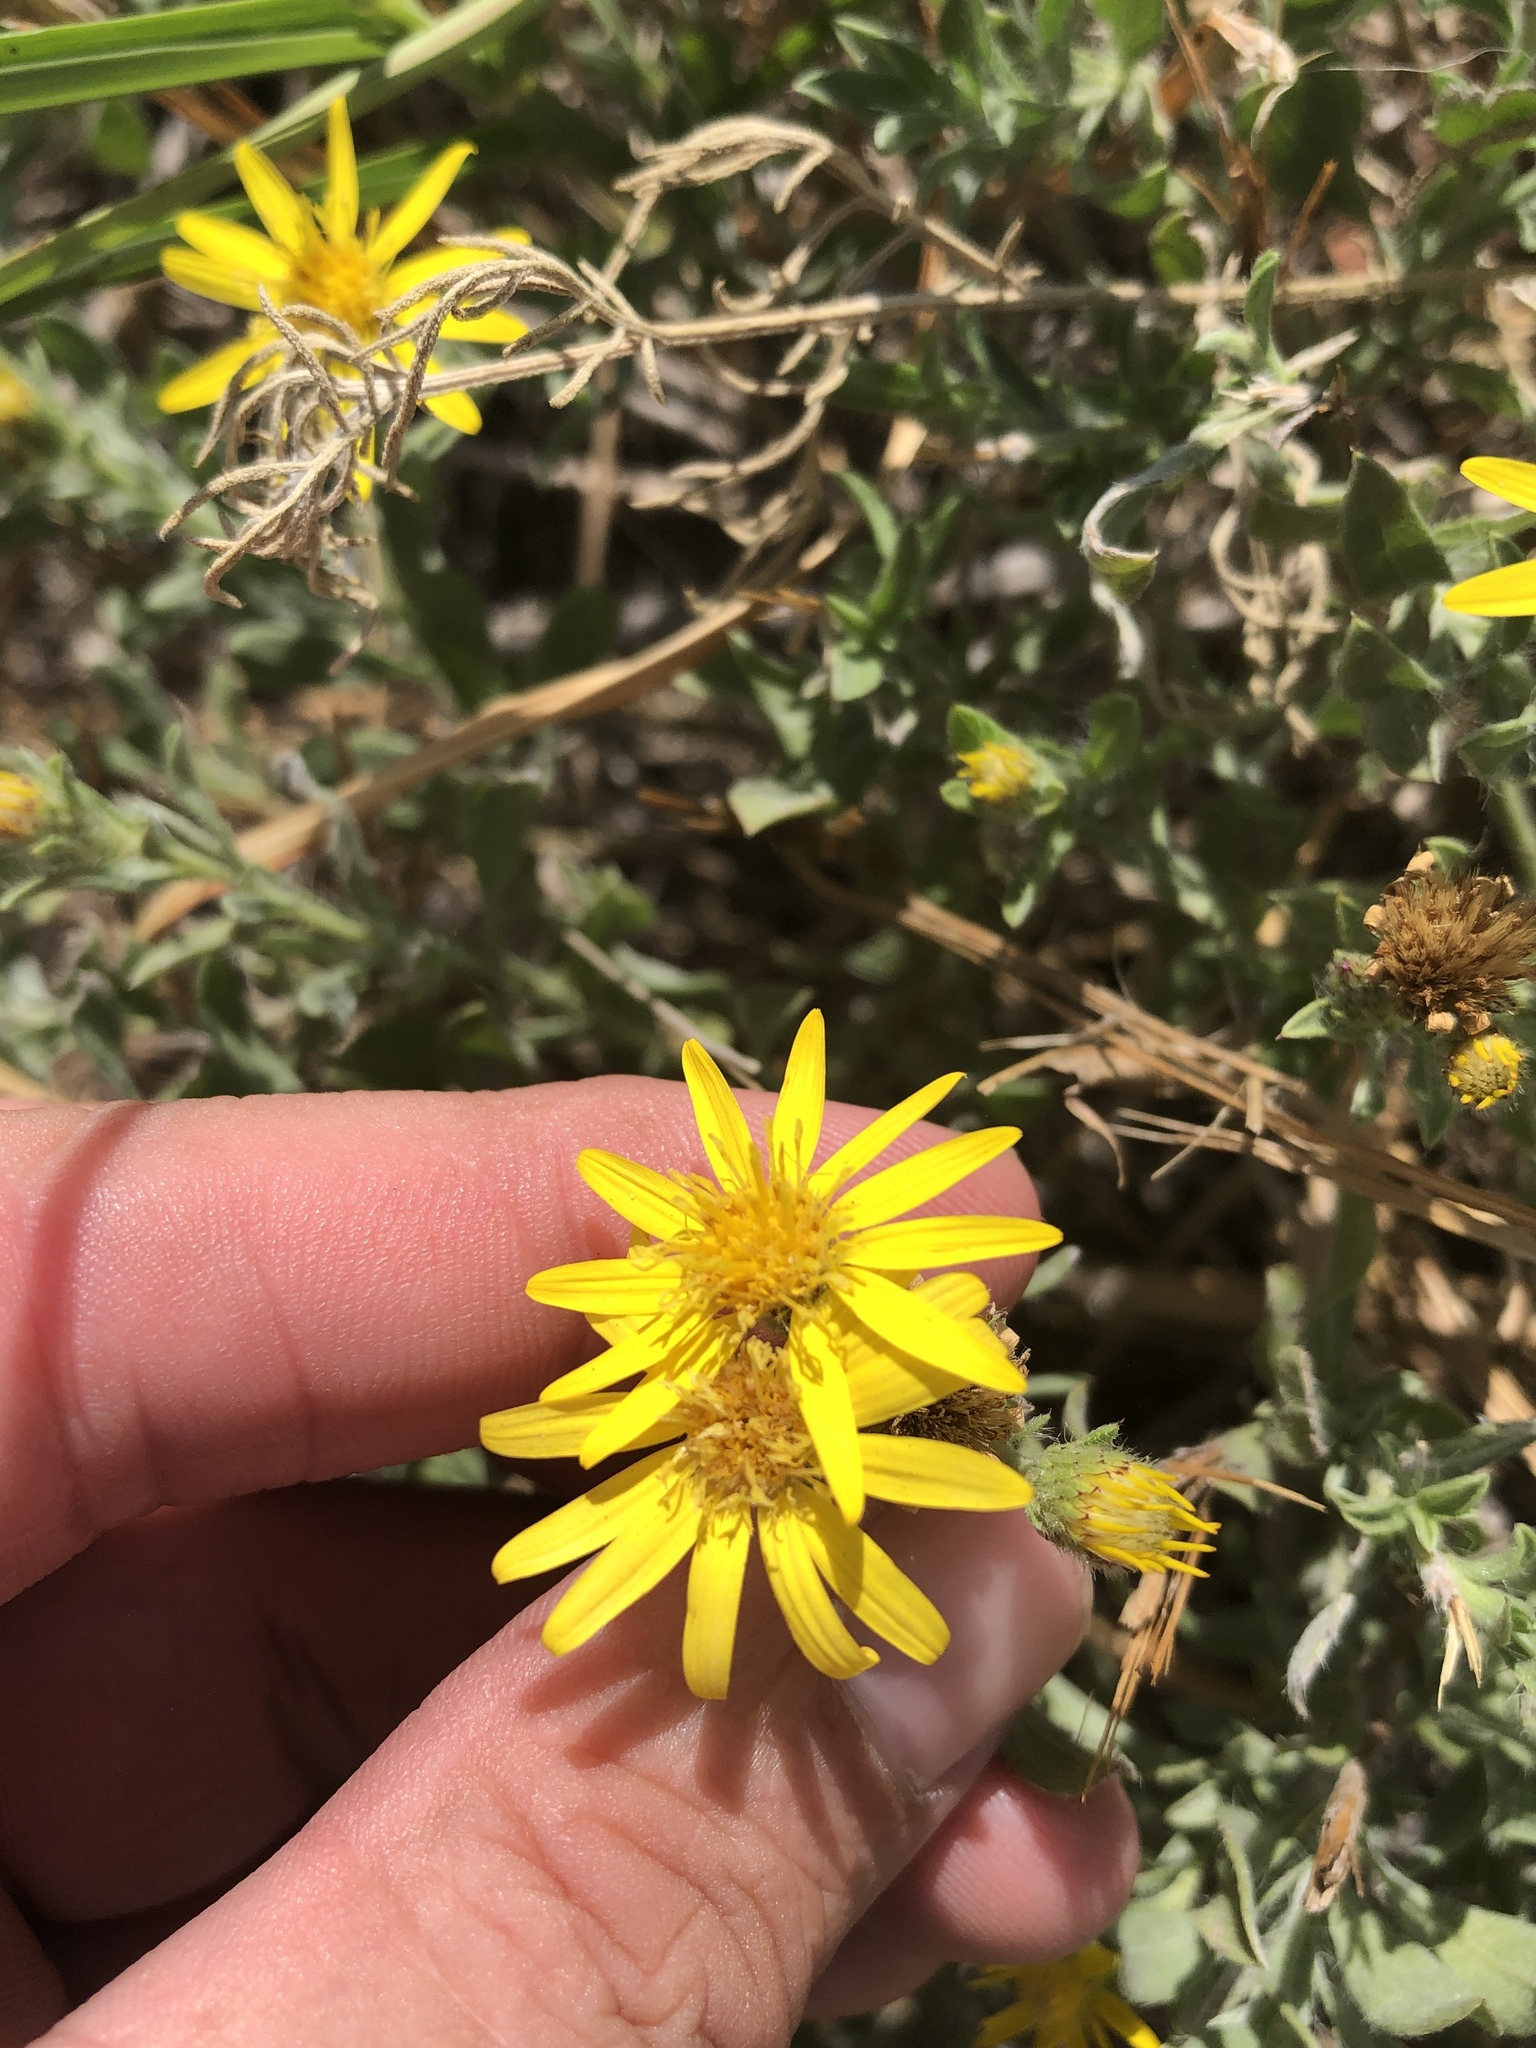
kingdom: Plantae
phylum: Tracheophyta
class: Magnoliopsida
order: Asterales
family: Asteraceae
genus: Heterotheca
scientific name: Heterotheca canescens
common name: Hoary golden-aster
